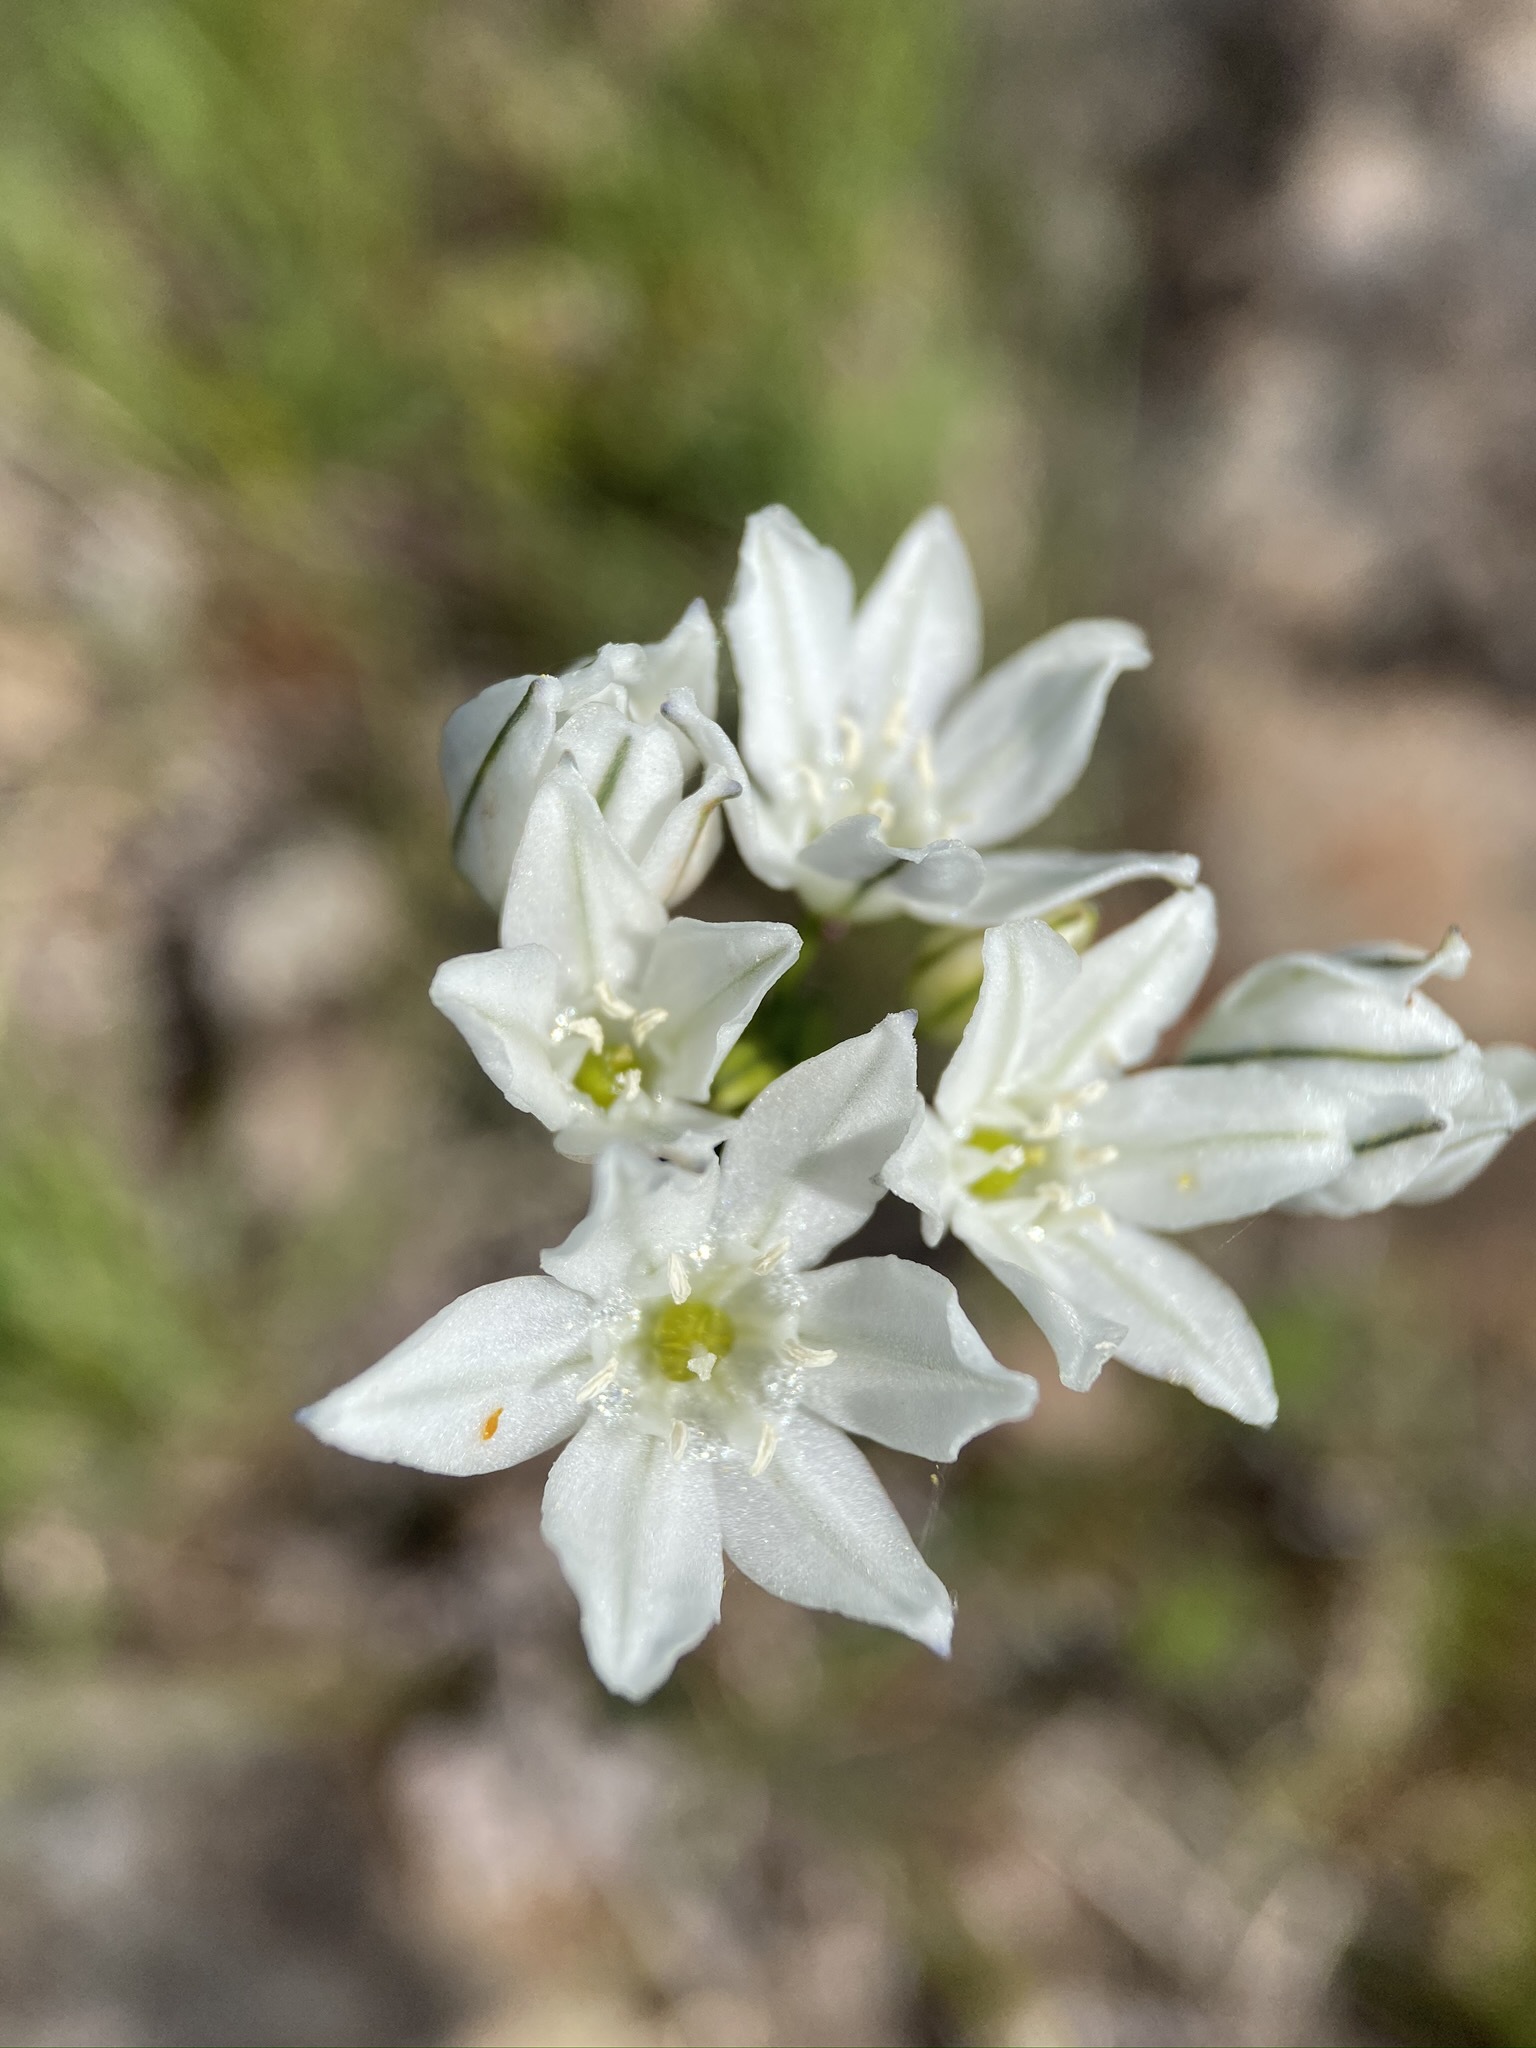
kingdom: Plantae
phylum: Tracheophyta
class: Liliopsida
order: Asparagales
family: Asparagaceae
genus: Triteleia
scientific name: Triteleia hyacinthina
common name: White brodiaea
